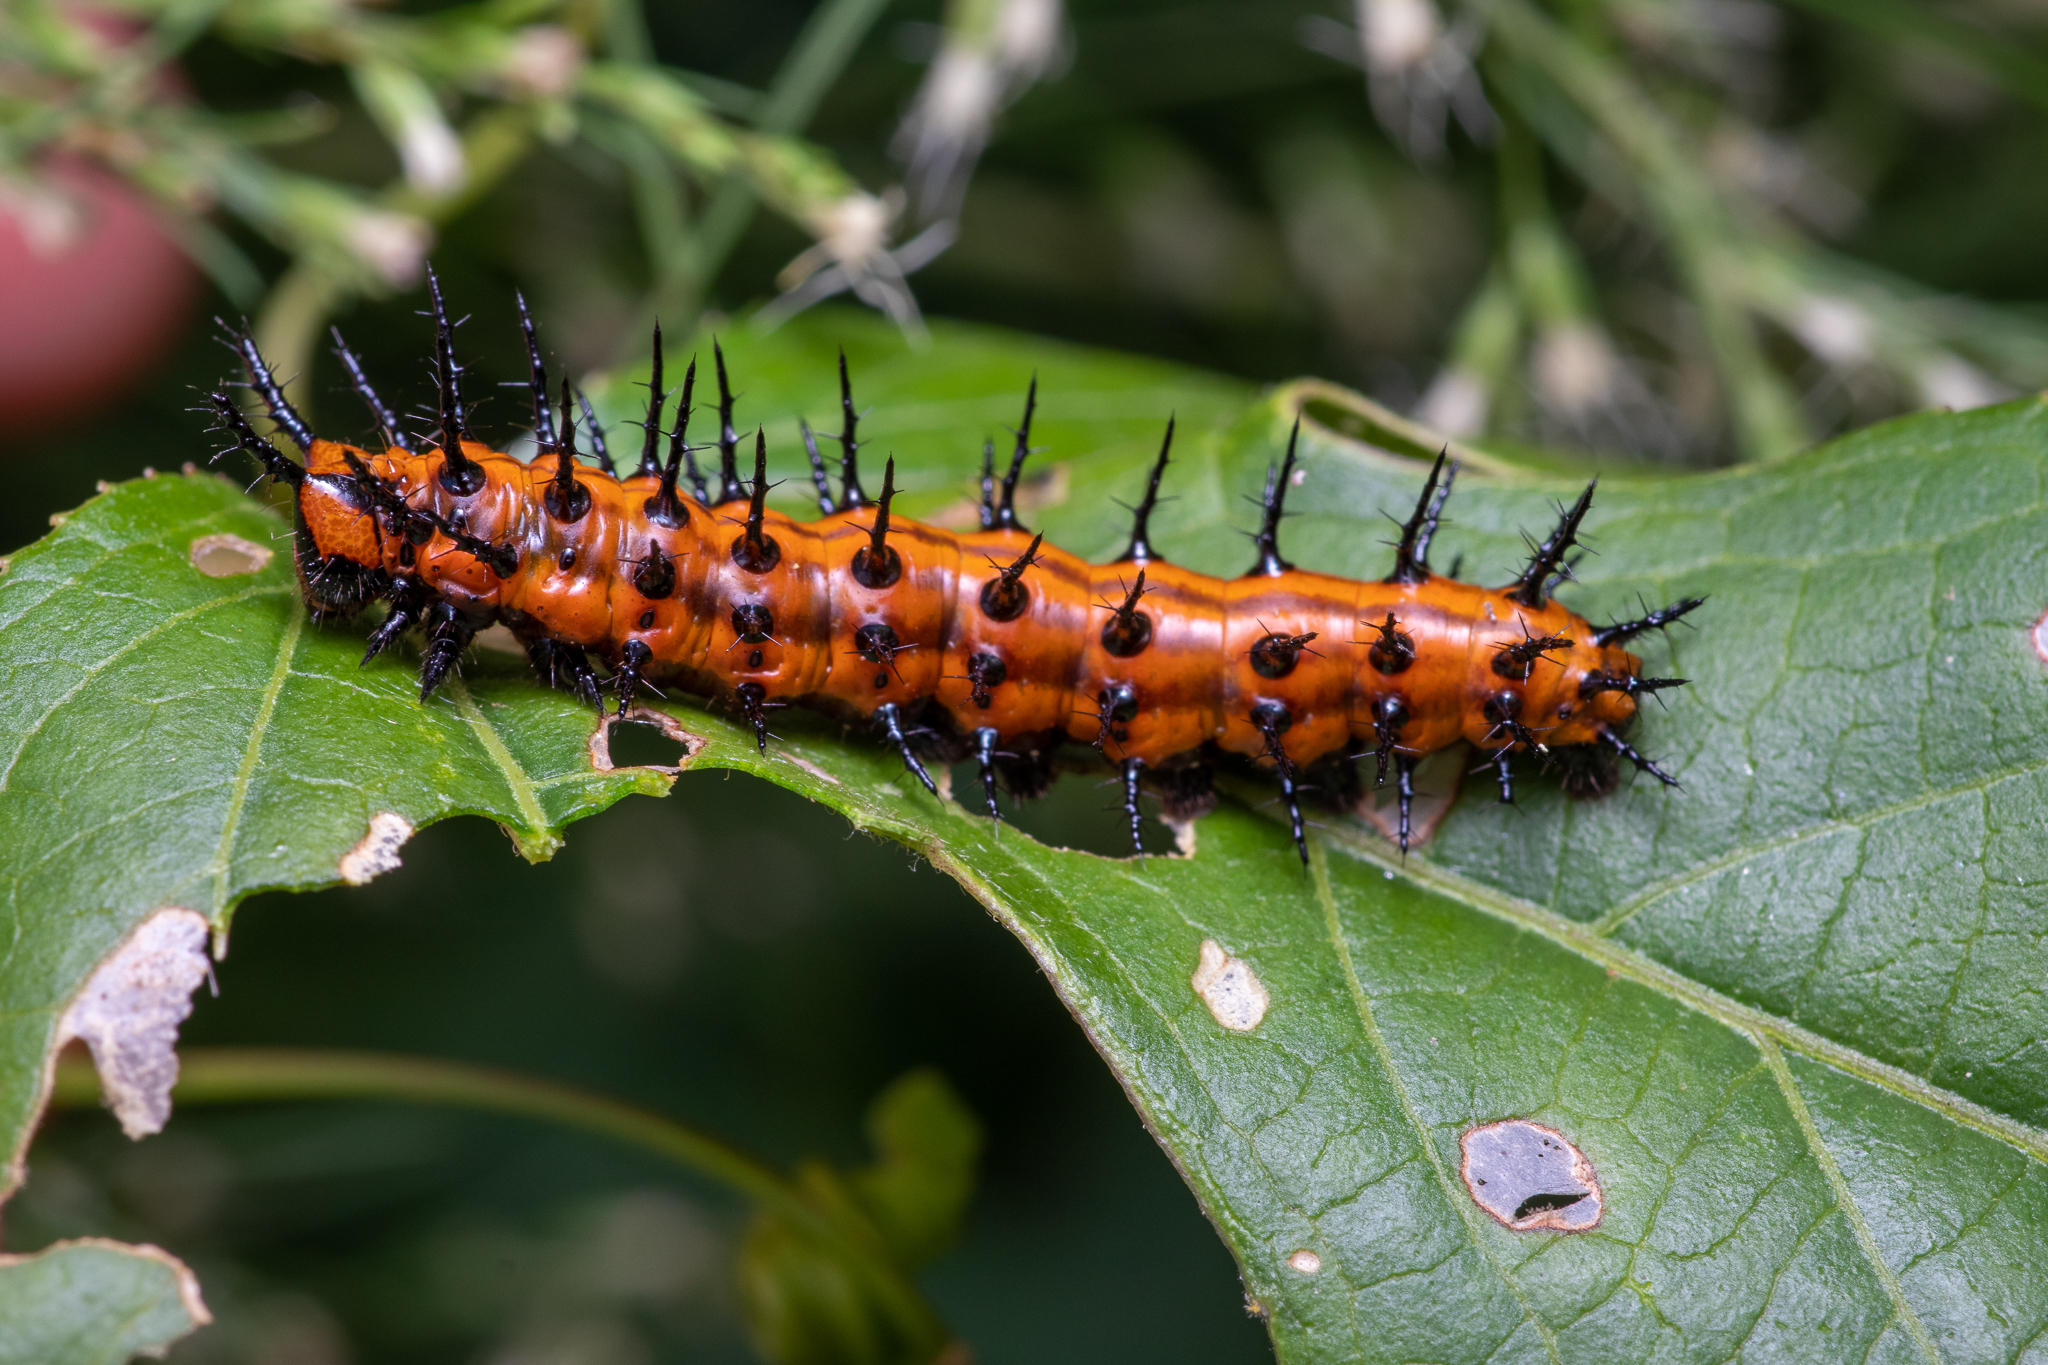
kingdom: Animalia
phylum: Arthropoda
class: Insecta
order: Lepidoptera
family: Nymphalidae
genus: Dione
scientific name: Dione vanillae
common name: Gulf fritillary
